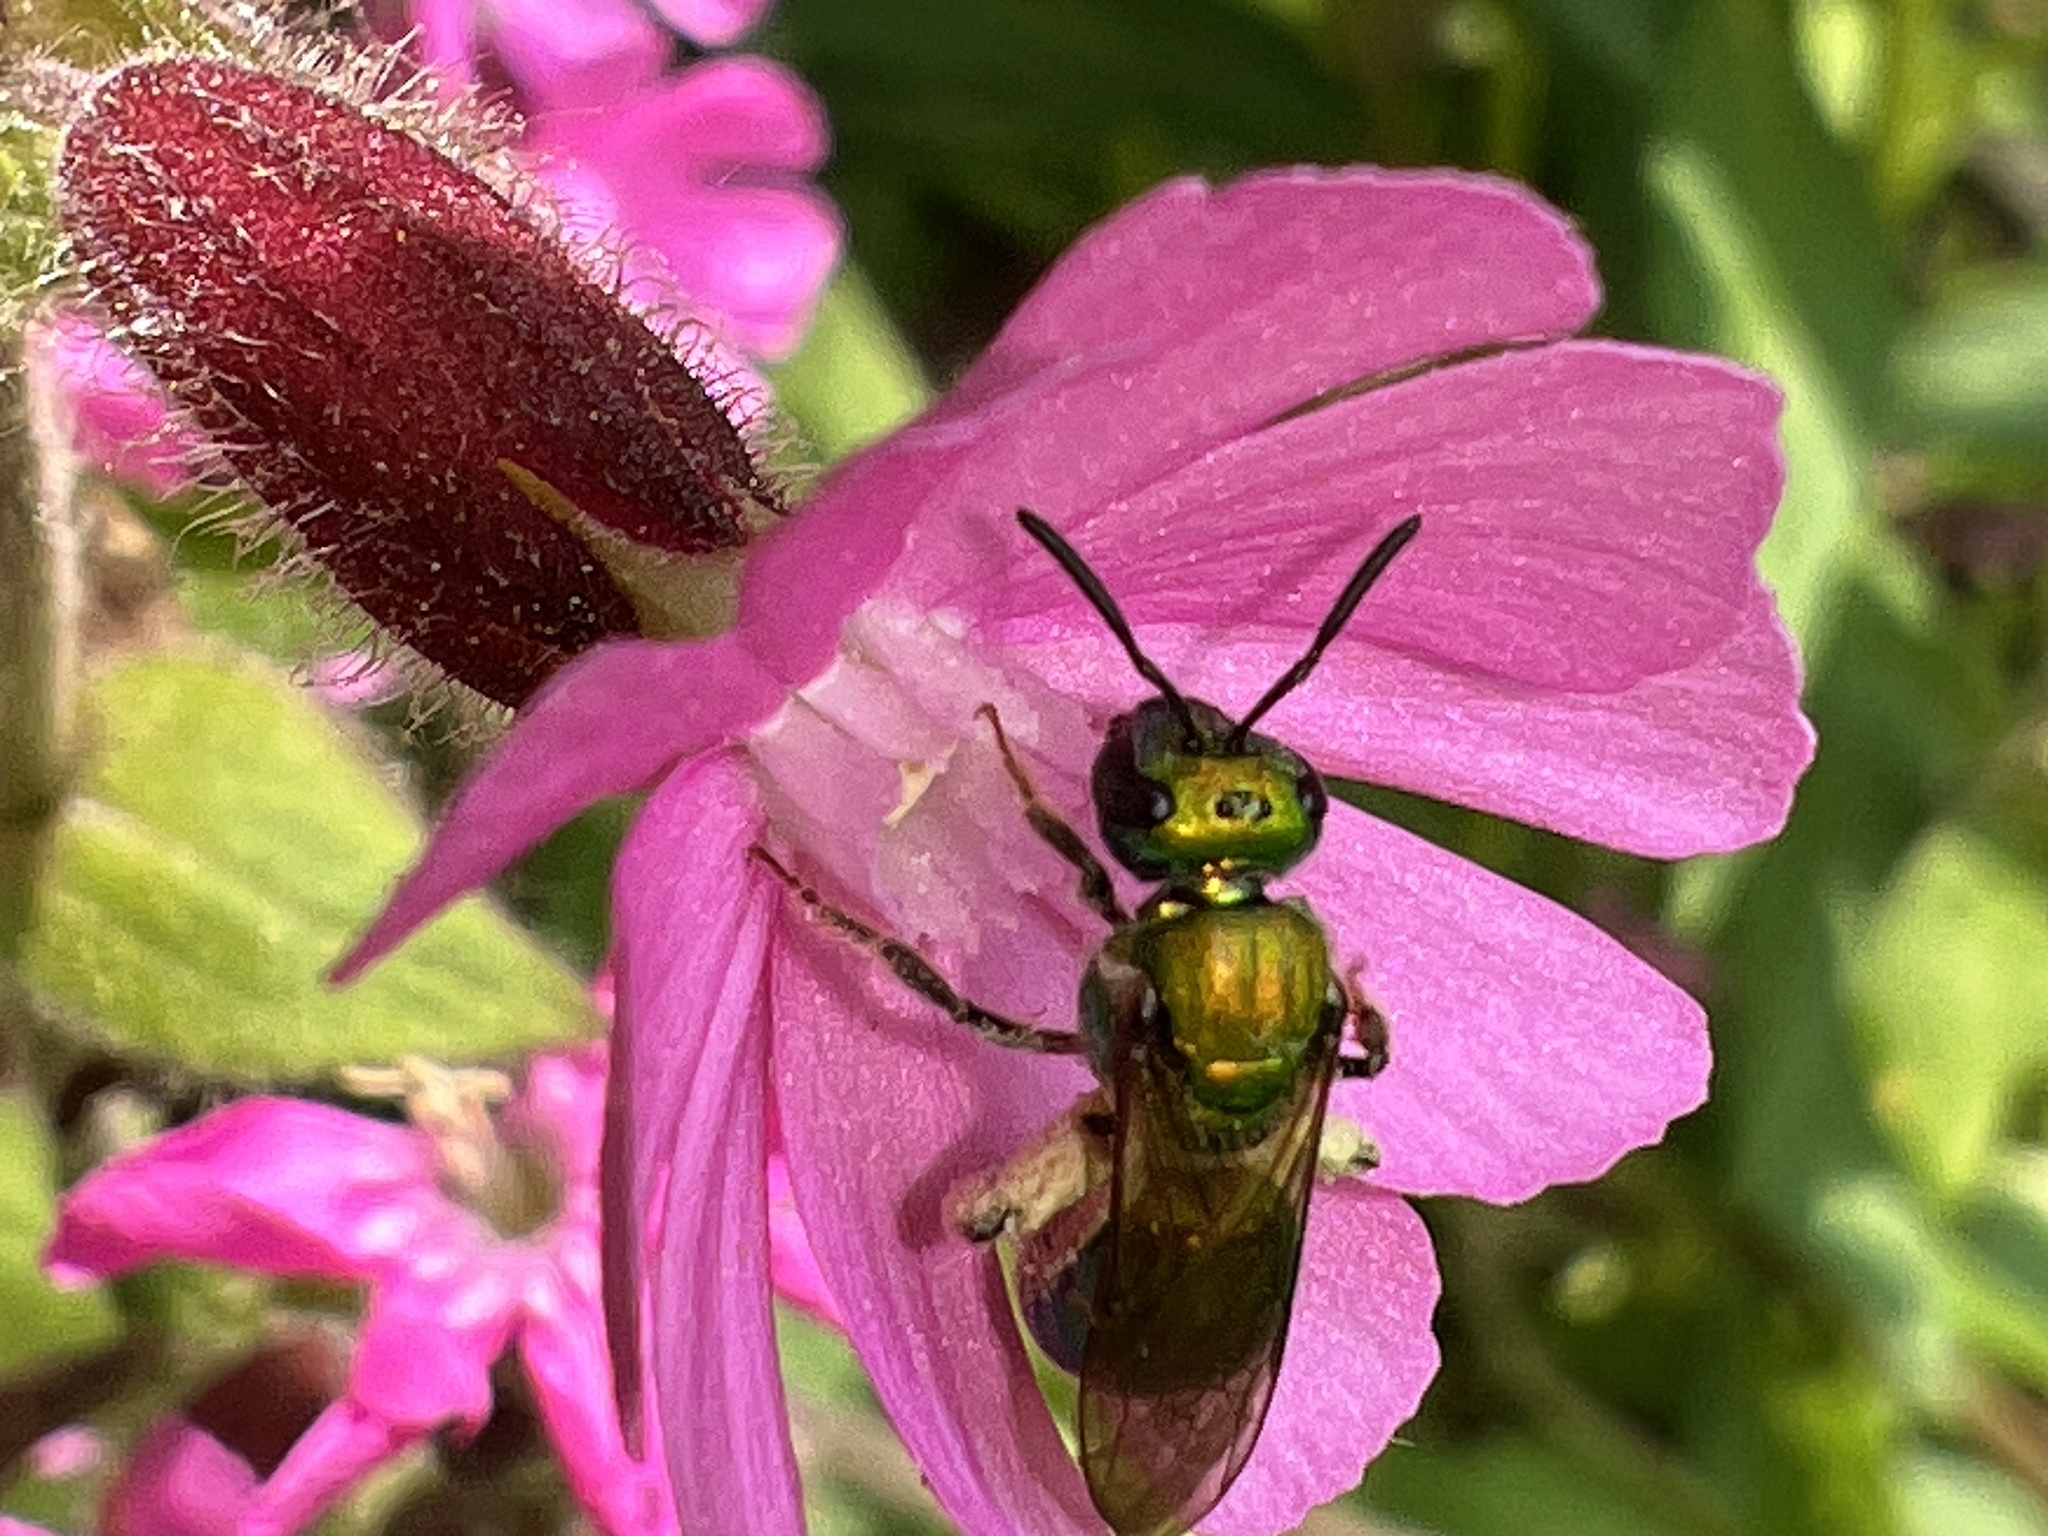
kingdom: Animalia
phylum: Arthropoda
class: Insecta
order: Hymenoptera
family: Halictidae
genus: Augochlora
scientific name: Augochlora pura
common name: Pure green sweat bee
